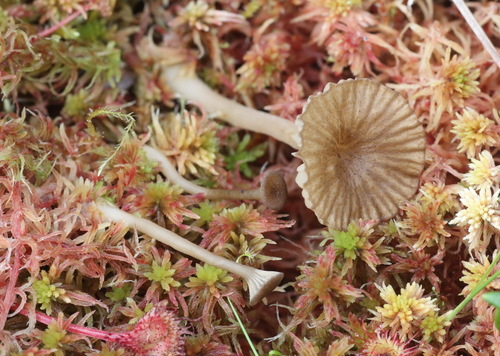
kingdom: Fungi
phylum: Basidiomycota
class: Agaricomycetes
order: Agaricales
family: Hygrophoraceae
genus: Lichenomphalia
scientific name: Lichenomphalia umbellifera
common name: Heath navel
